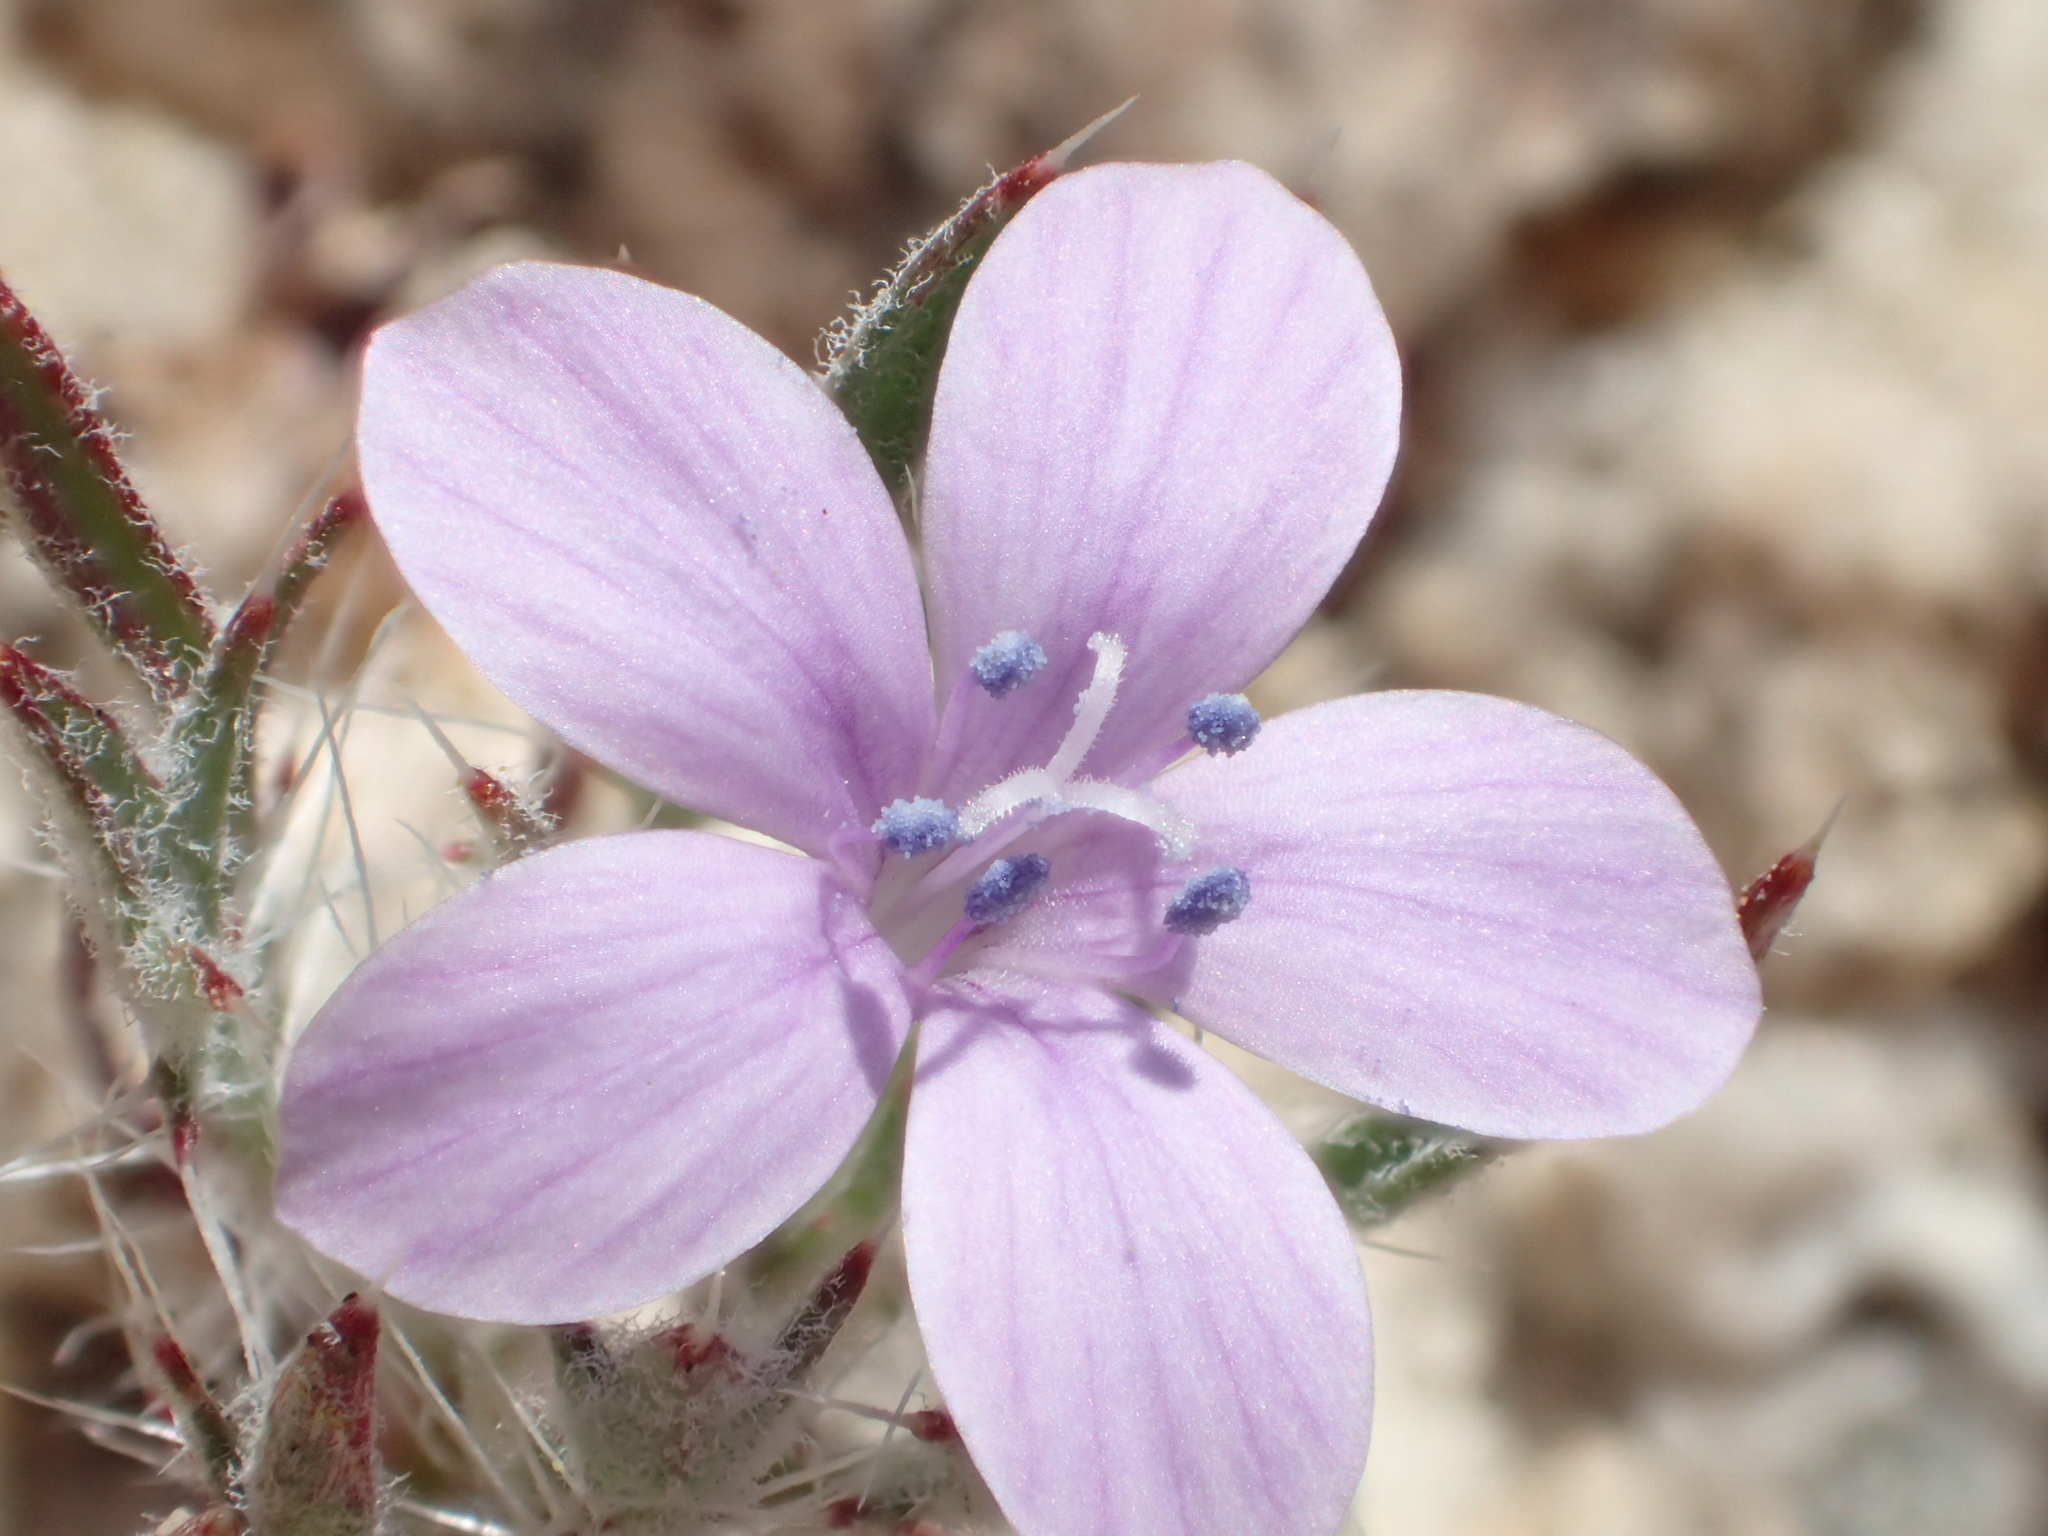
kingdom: Plantae
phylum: Tracheophyta
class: Magnoliopsida
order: Ericales
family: Polemoniaceae
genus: Langloisia
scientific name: Langloisia setosissima
